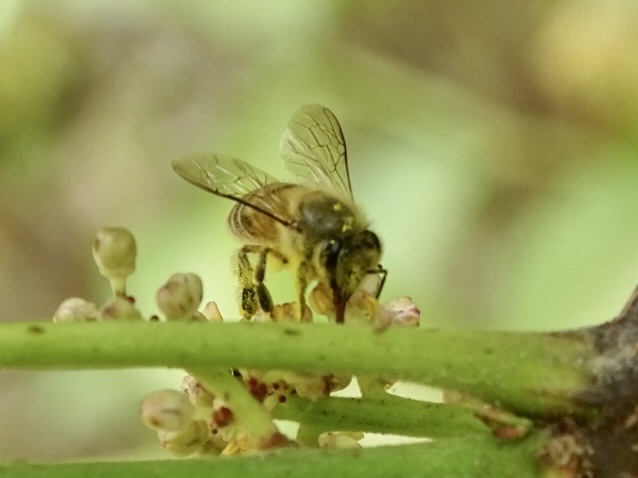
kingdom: Animalia
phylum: Arthropoda
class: Insecta
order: Hymenoptera
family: Apidae
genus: Apis
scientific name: Apis cerana
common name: Honey bee
